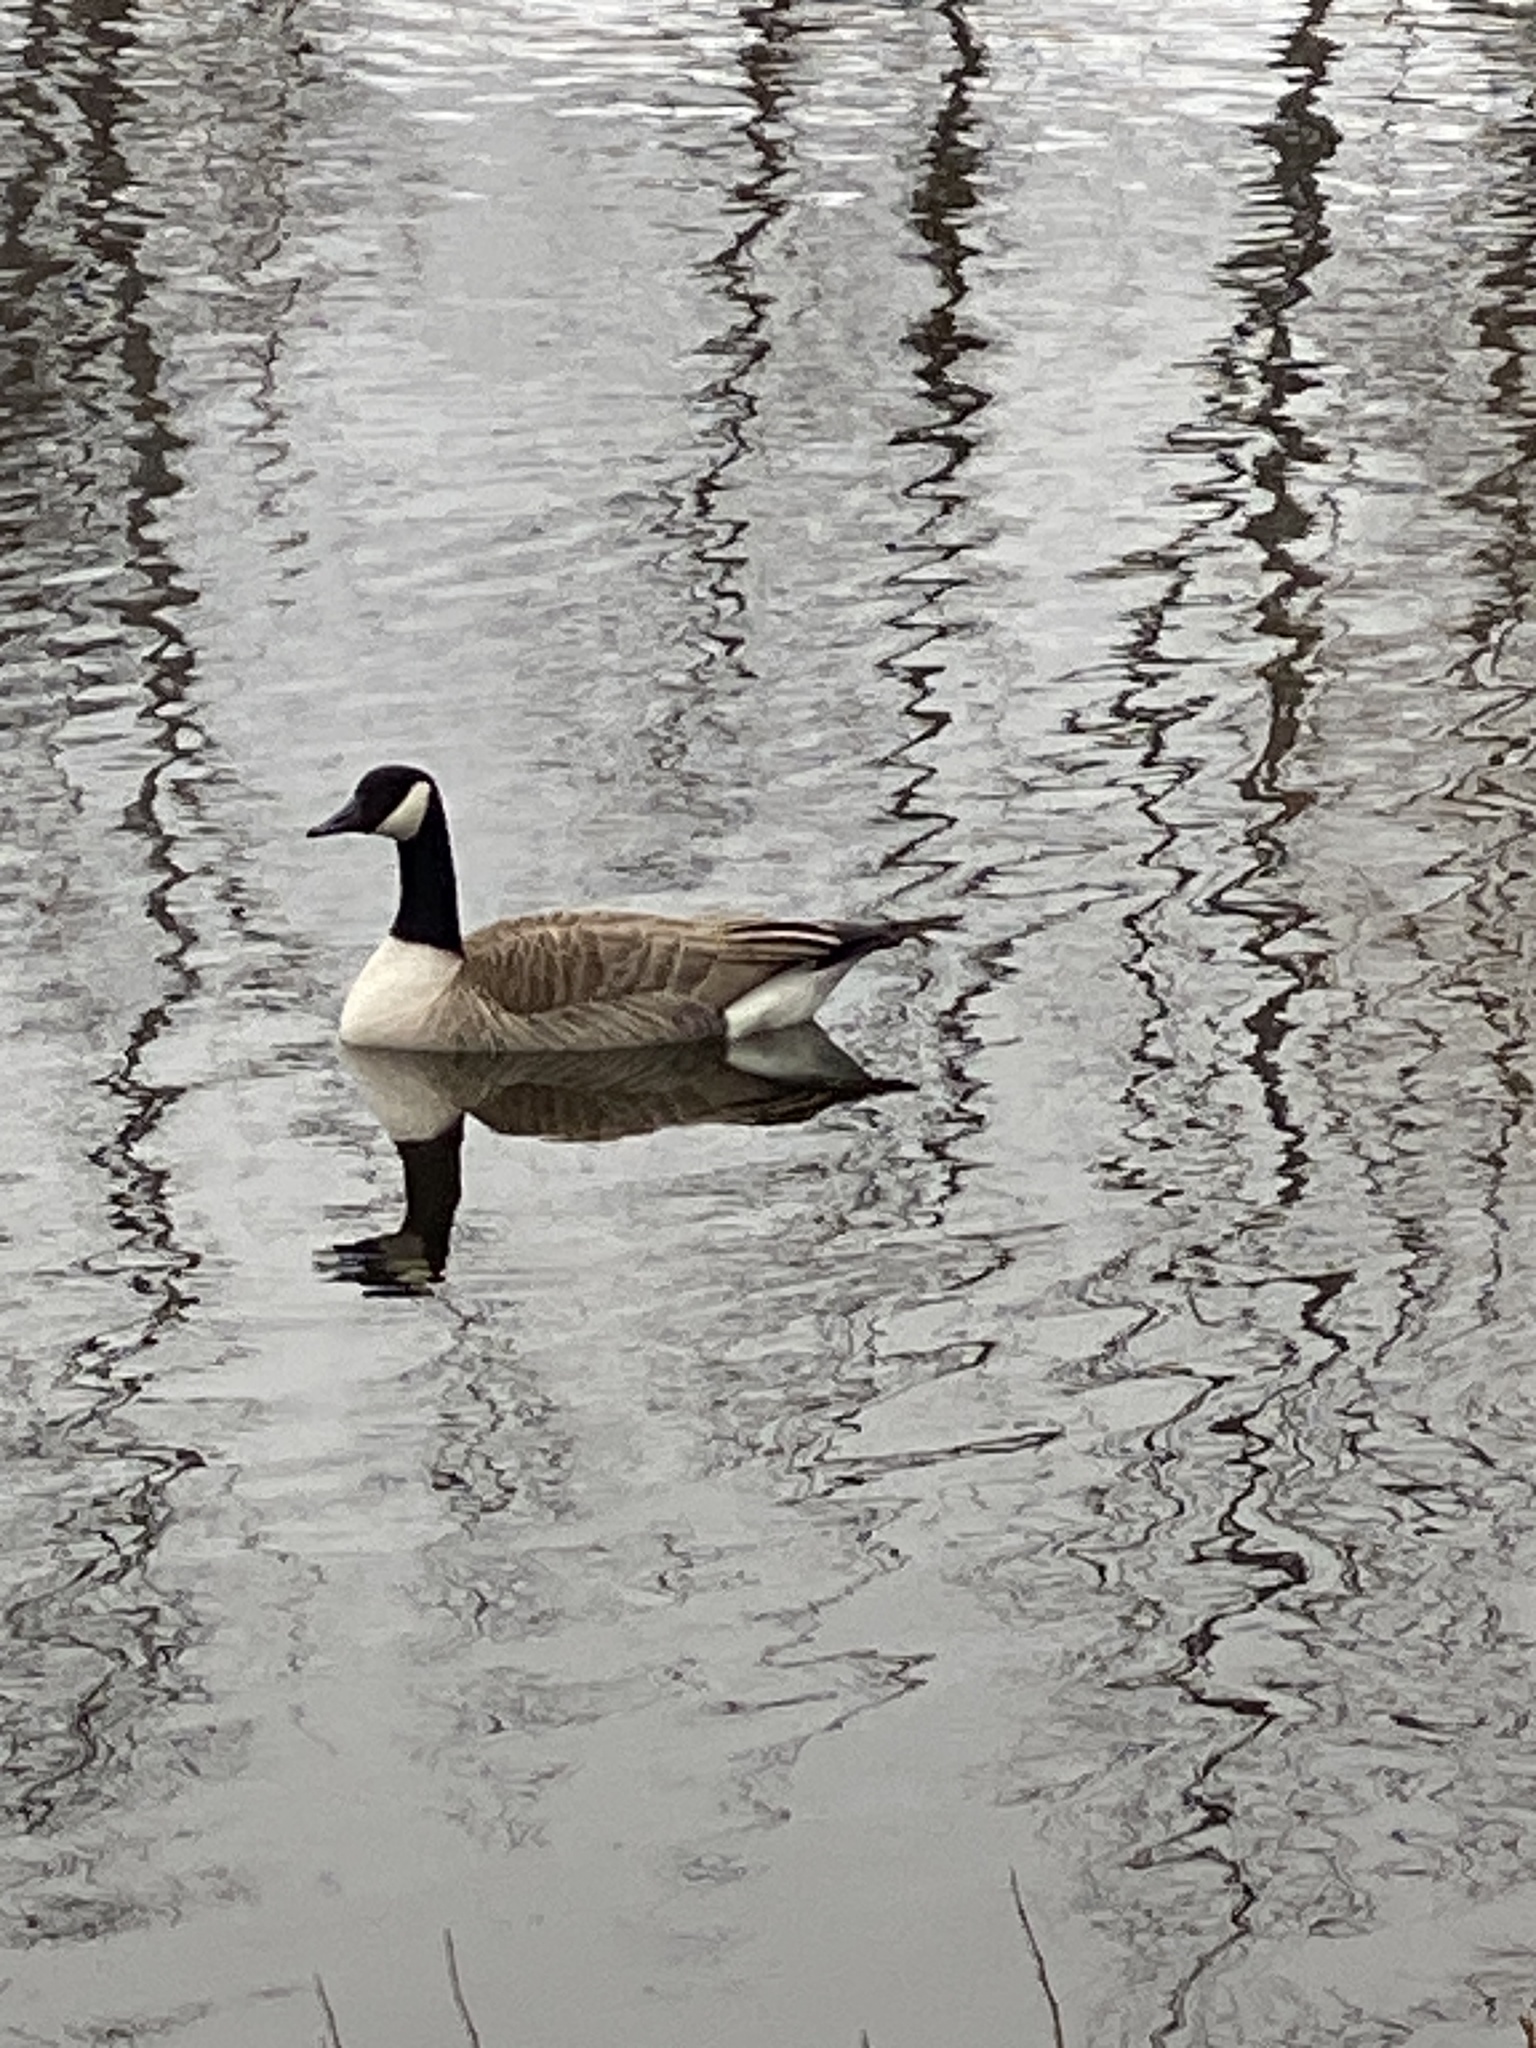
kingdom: Animalia
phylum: Chordata
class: Aves
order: Anseriformes
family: Anatidae
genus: Branta
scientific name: Branta canadensis
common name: Canada goose
